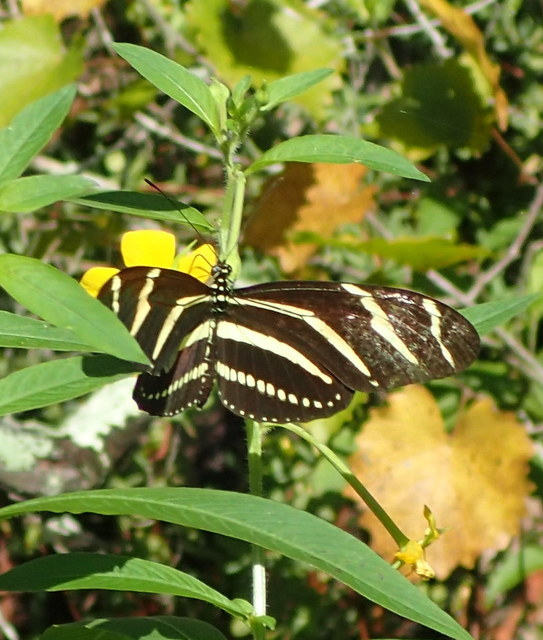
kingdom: Animalia
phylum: Arthropoda
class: Insecta
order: Lepidoptera
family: Nymphalidae
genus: Heliconius
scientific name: Heliconius charithonia
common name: Zebra long wing
